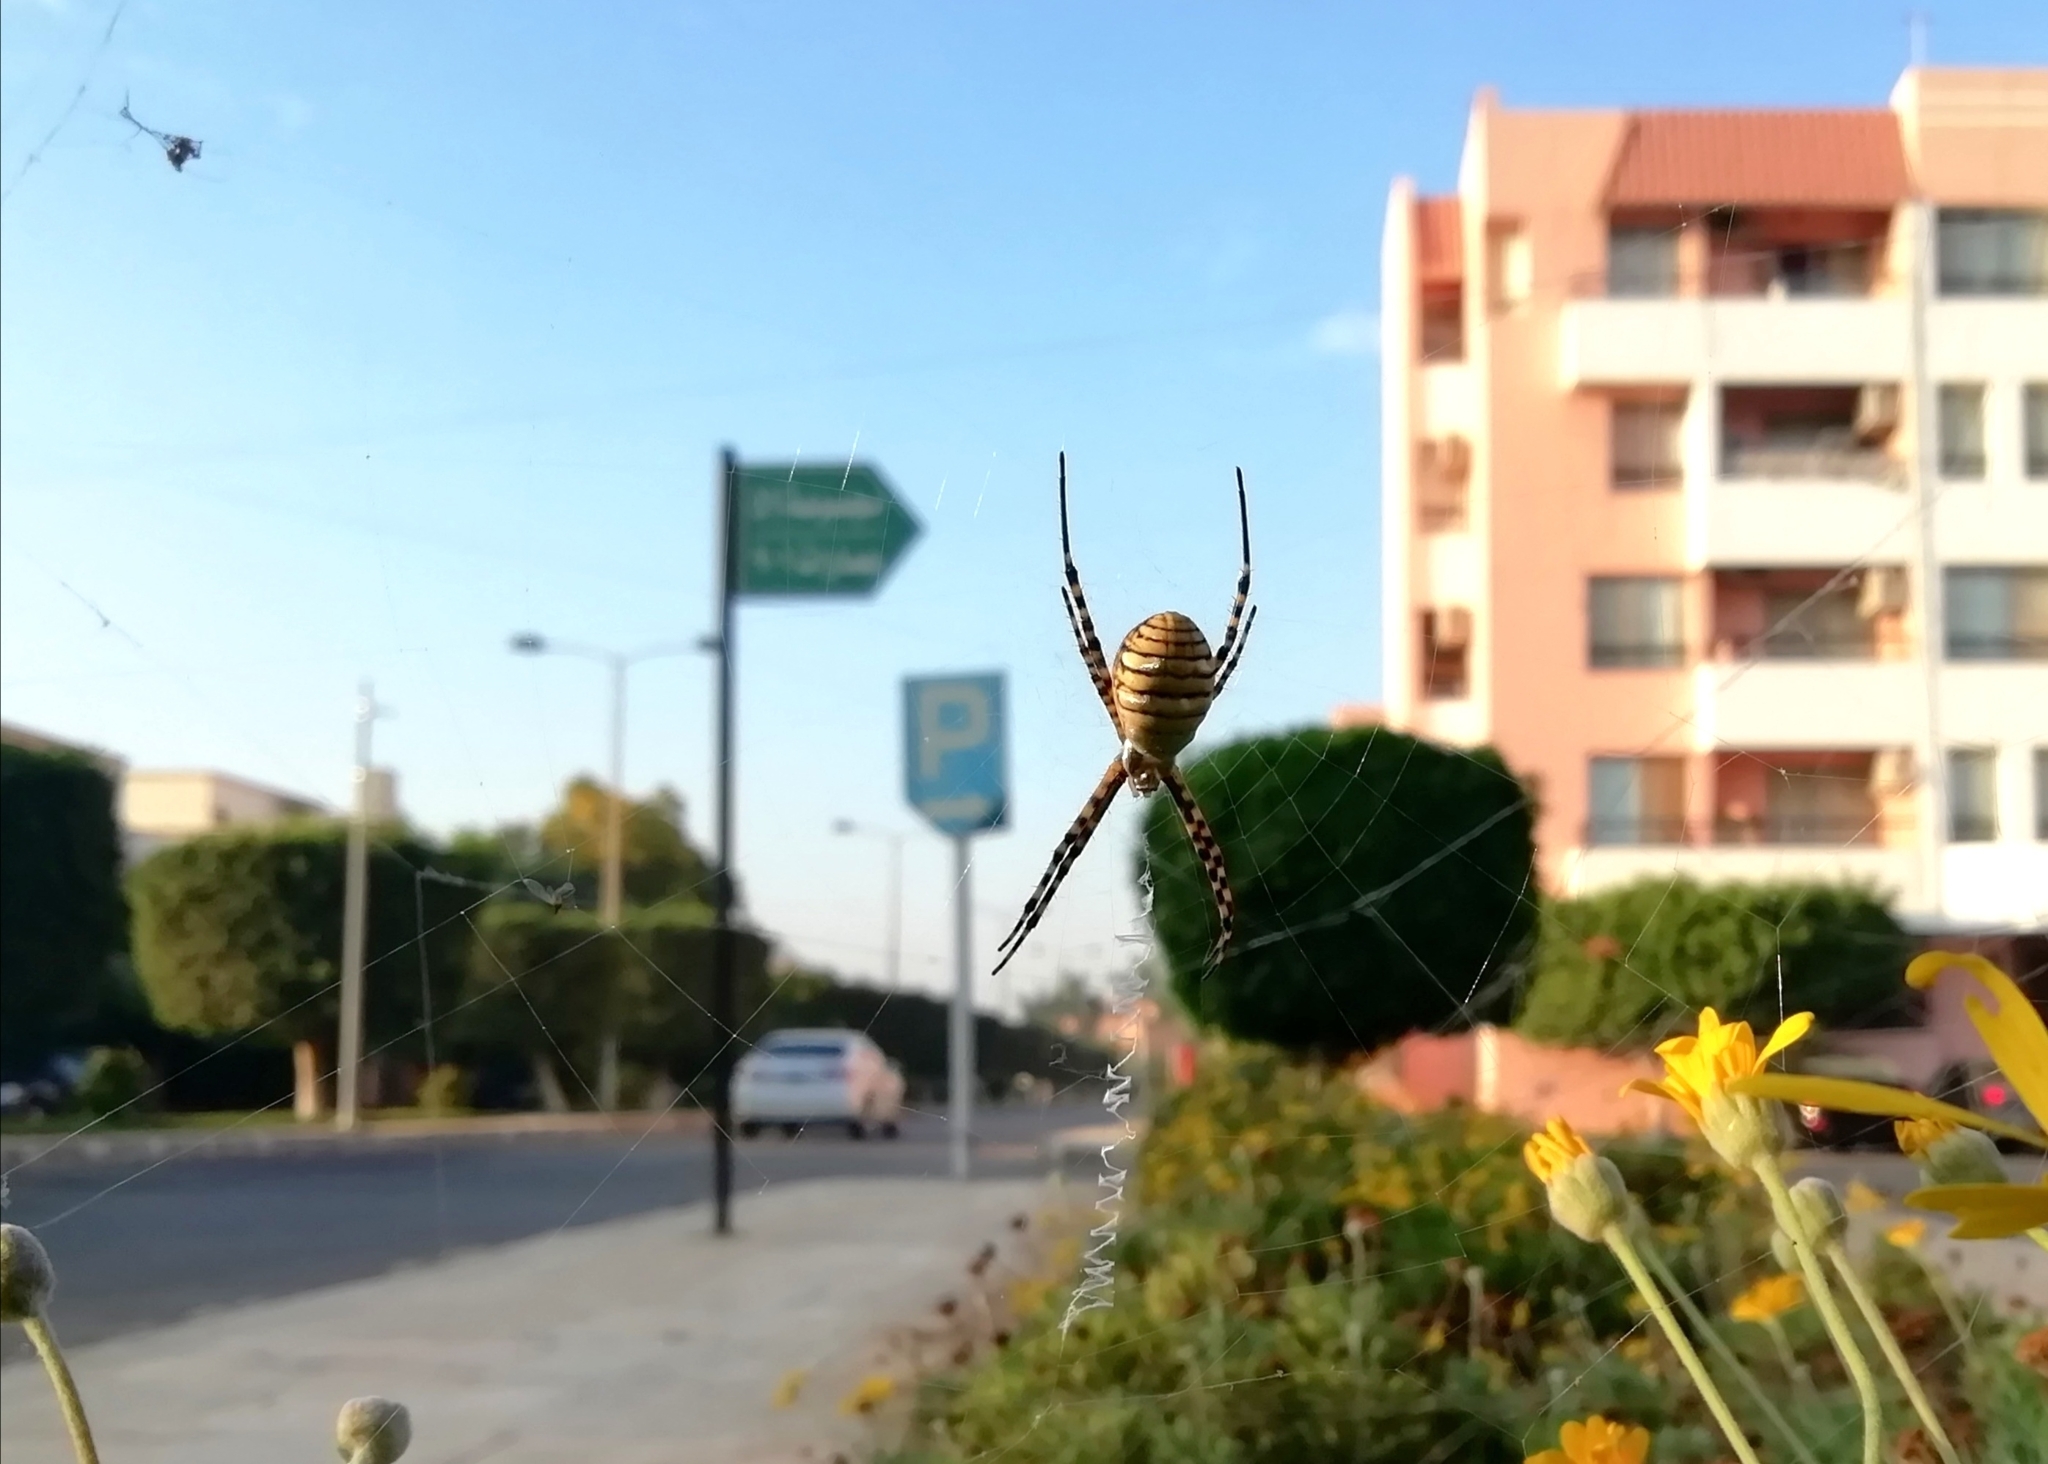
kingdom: Animalia
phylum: Arthropoda
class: Arachnida
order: Araneae
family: Araneidae
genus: Argiope
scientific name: Argiope trifasciata
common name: Banded garden spider
